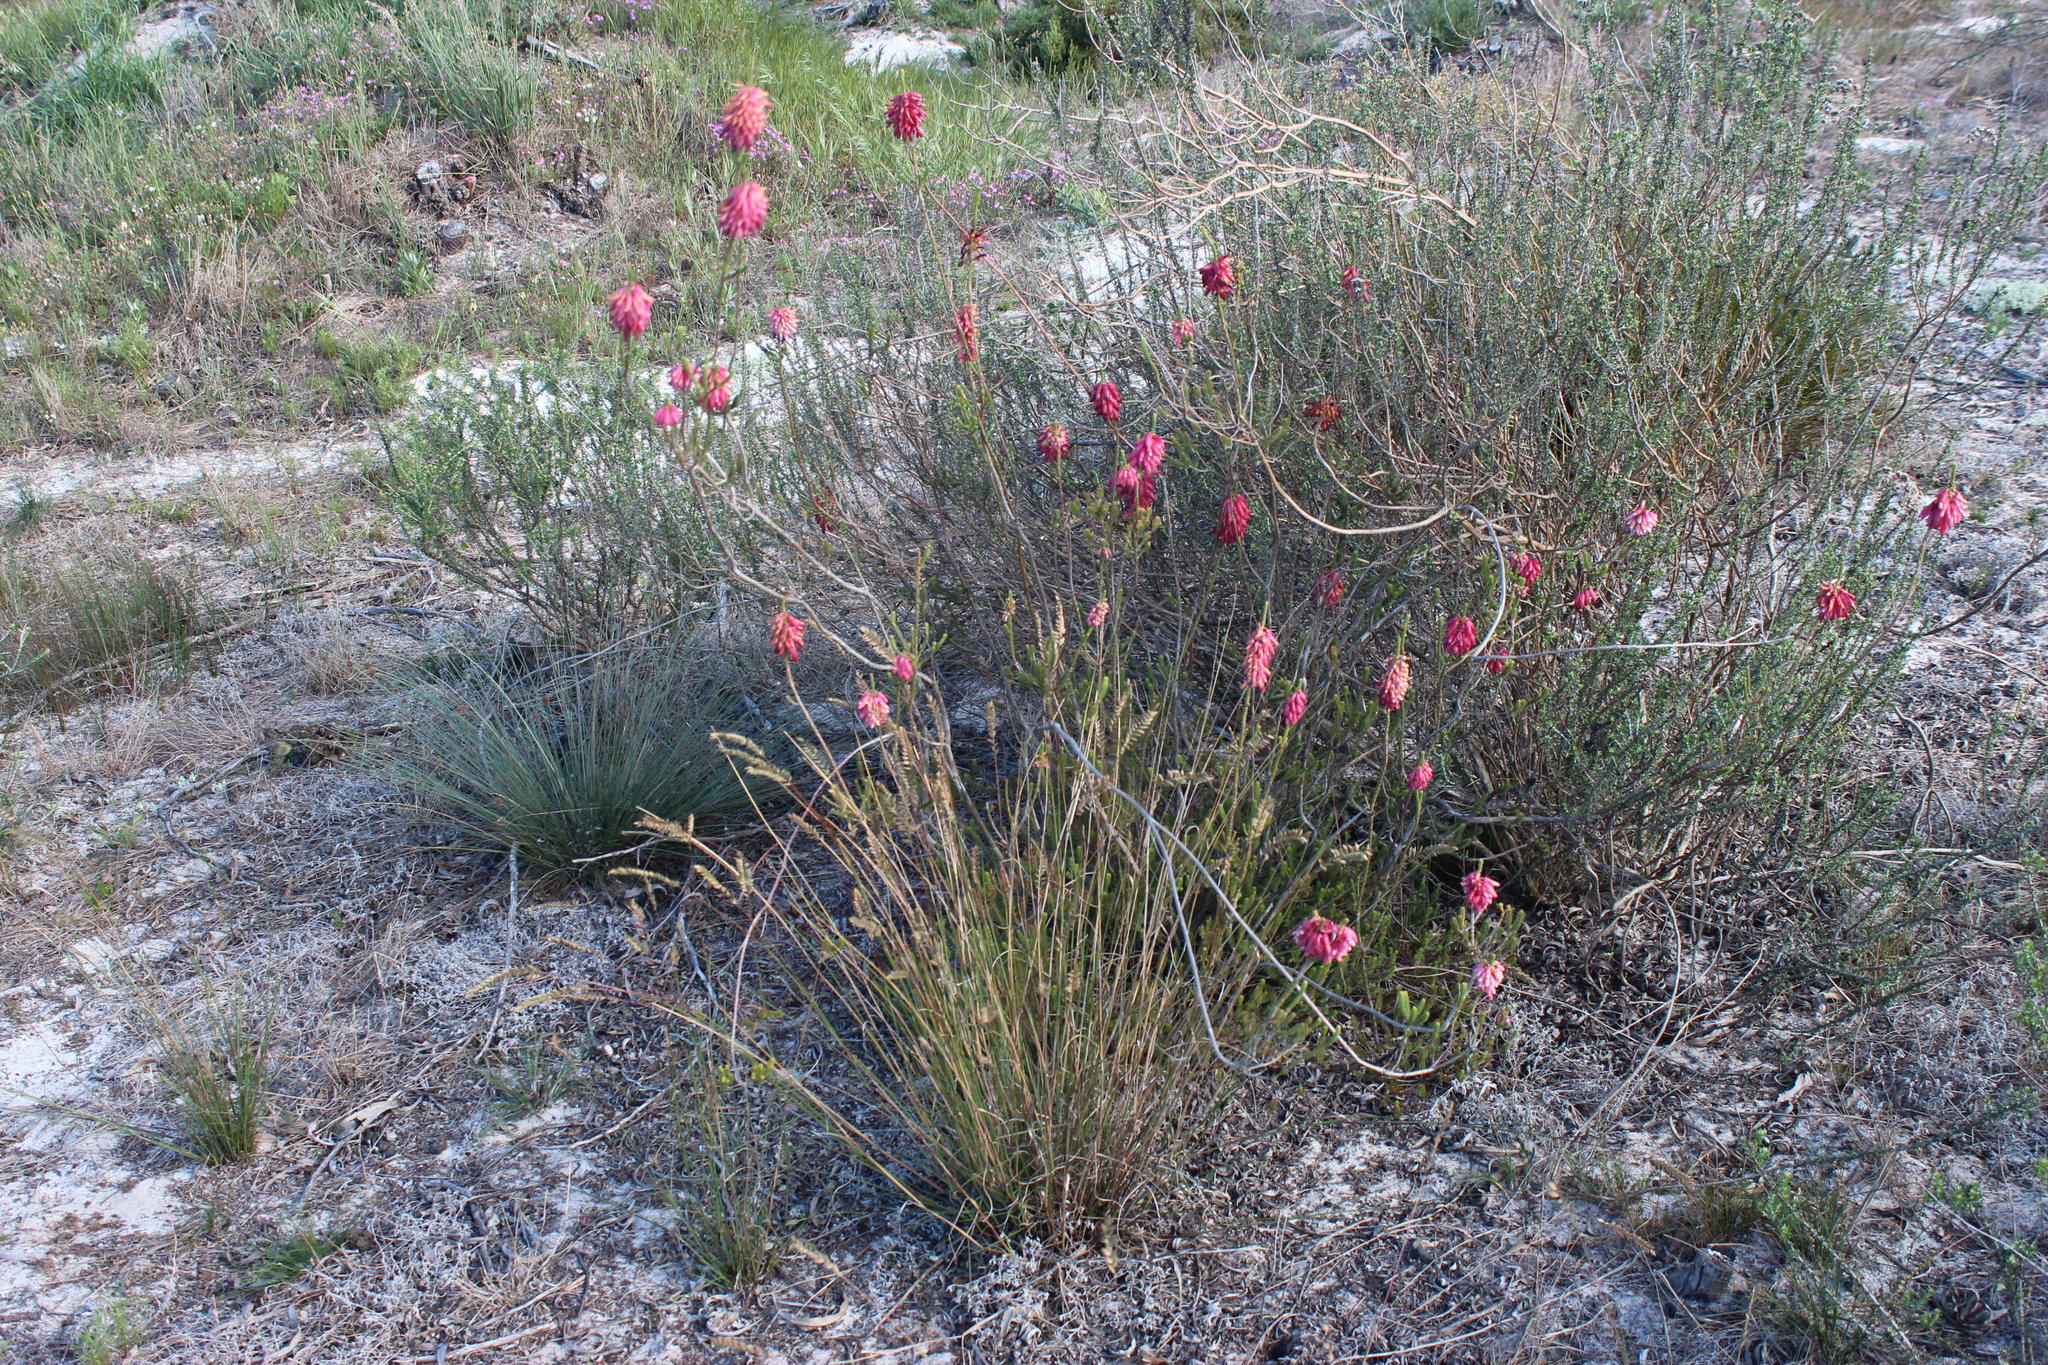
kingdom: Plantae
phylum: Tracheophyta
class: Magnoliopsida
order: Ericales
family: Ericaceae
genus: Erica
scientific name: Erica mammosa
